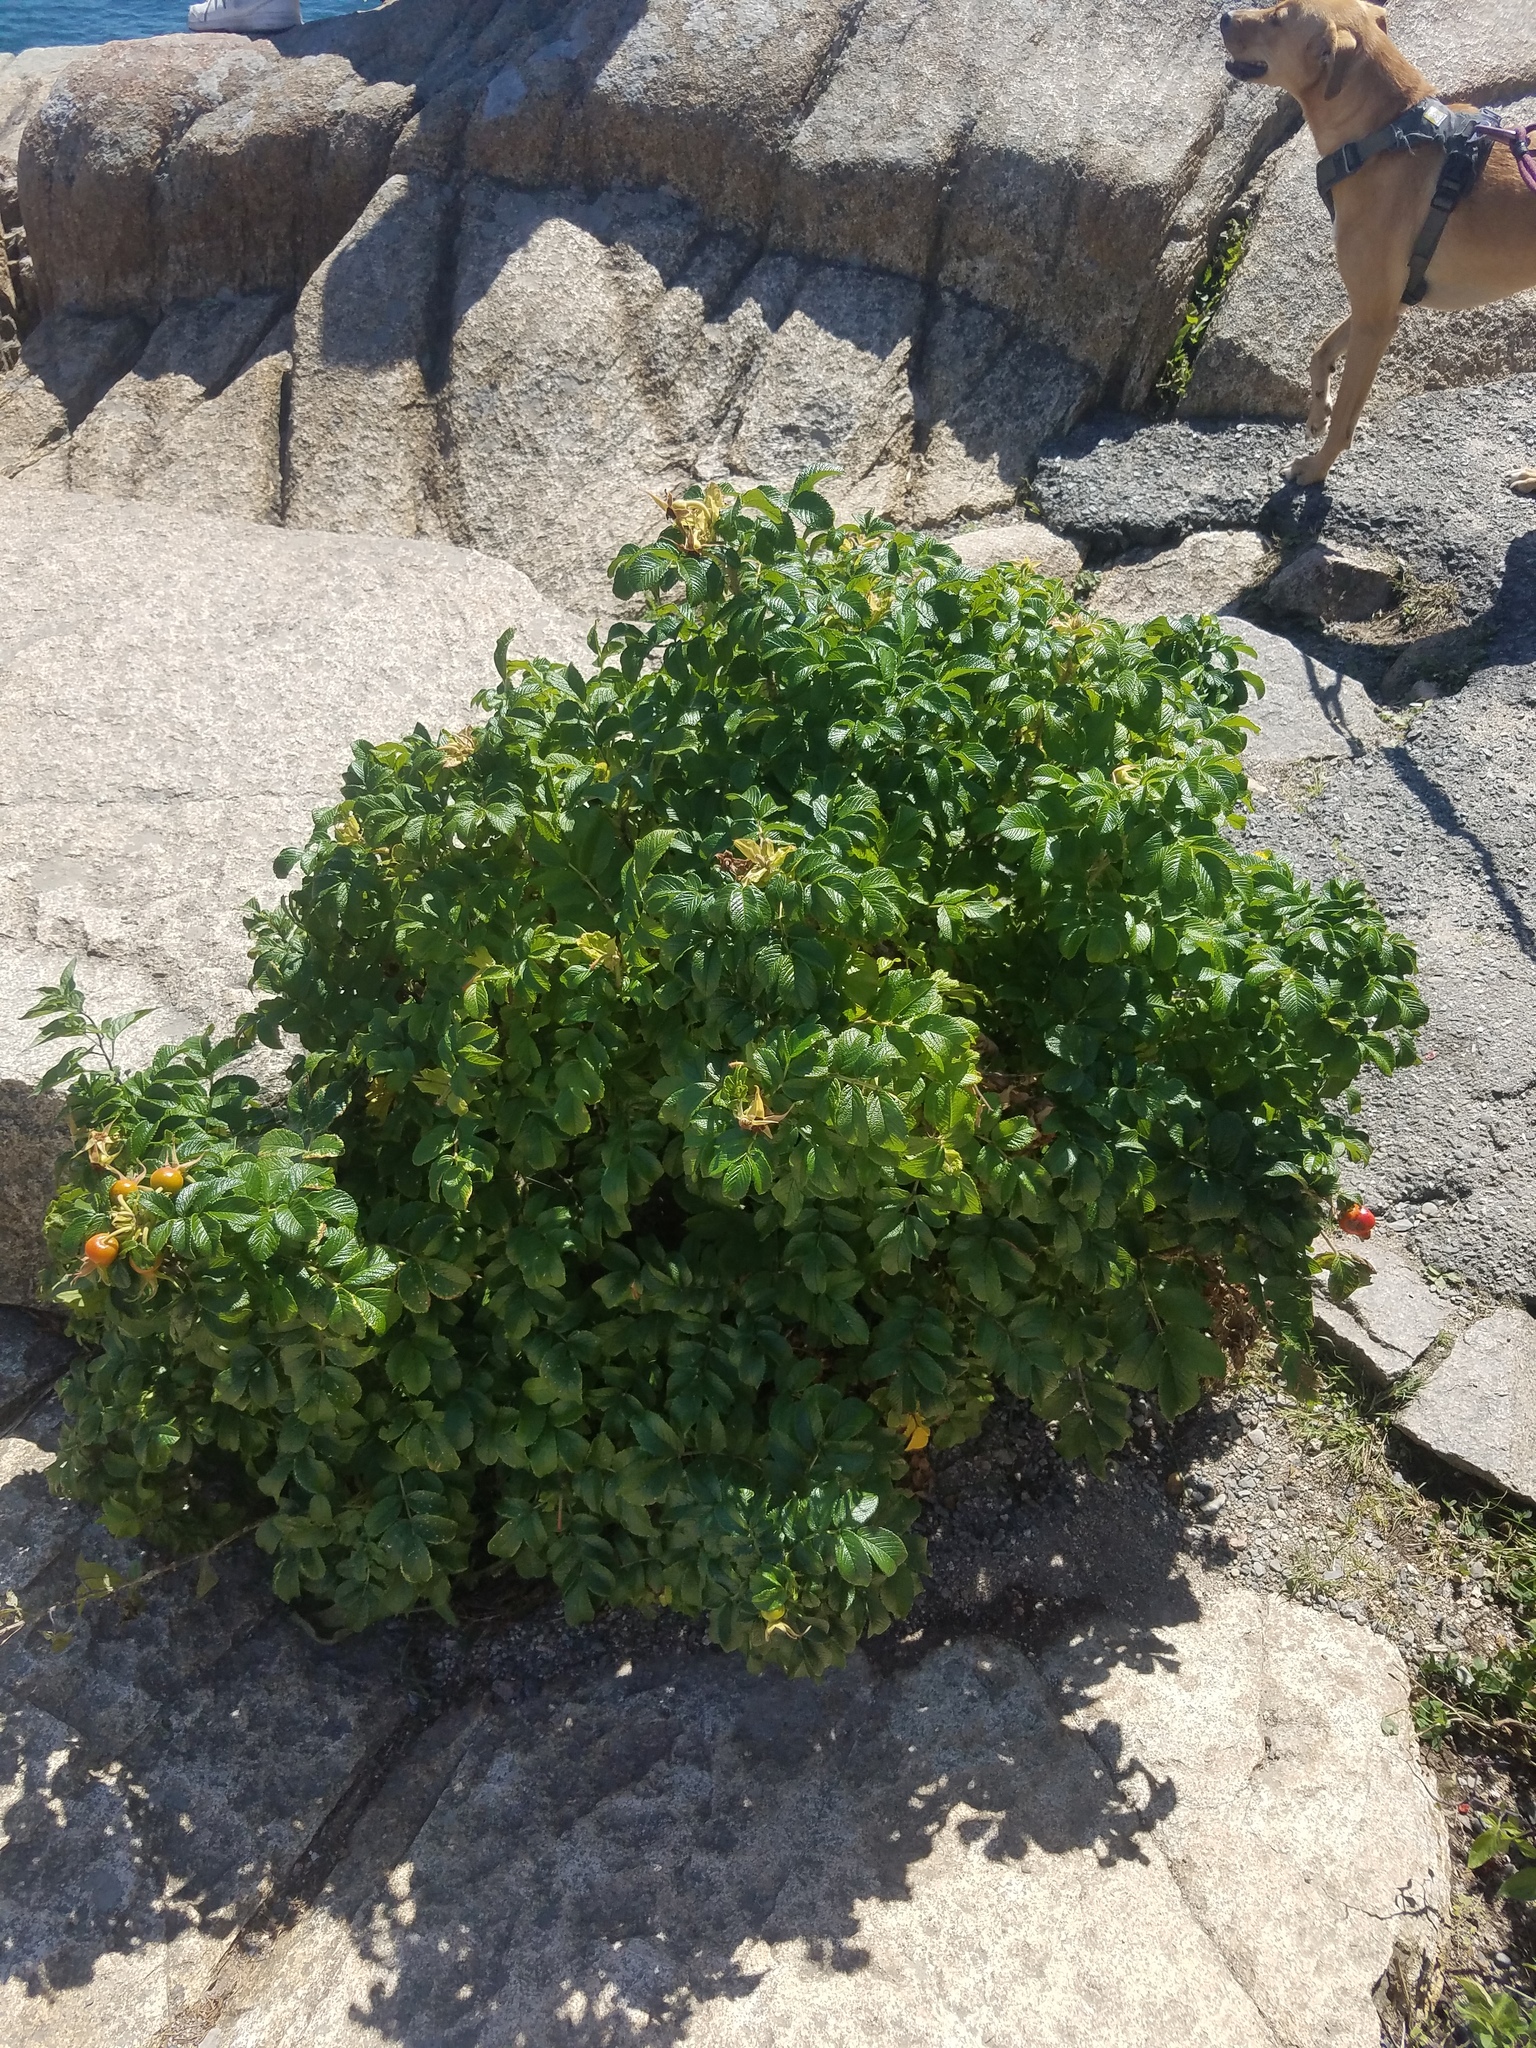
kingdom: Plantae
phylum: Tracheophyta
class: Magnoliopsida
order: Rosales
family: Rosaceae
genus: Rosa
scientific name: Rosa rugosa
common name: Japanese rose
